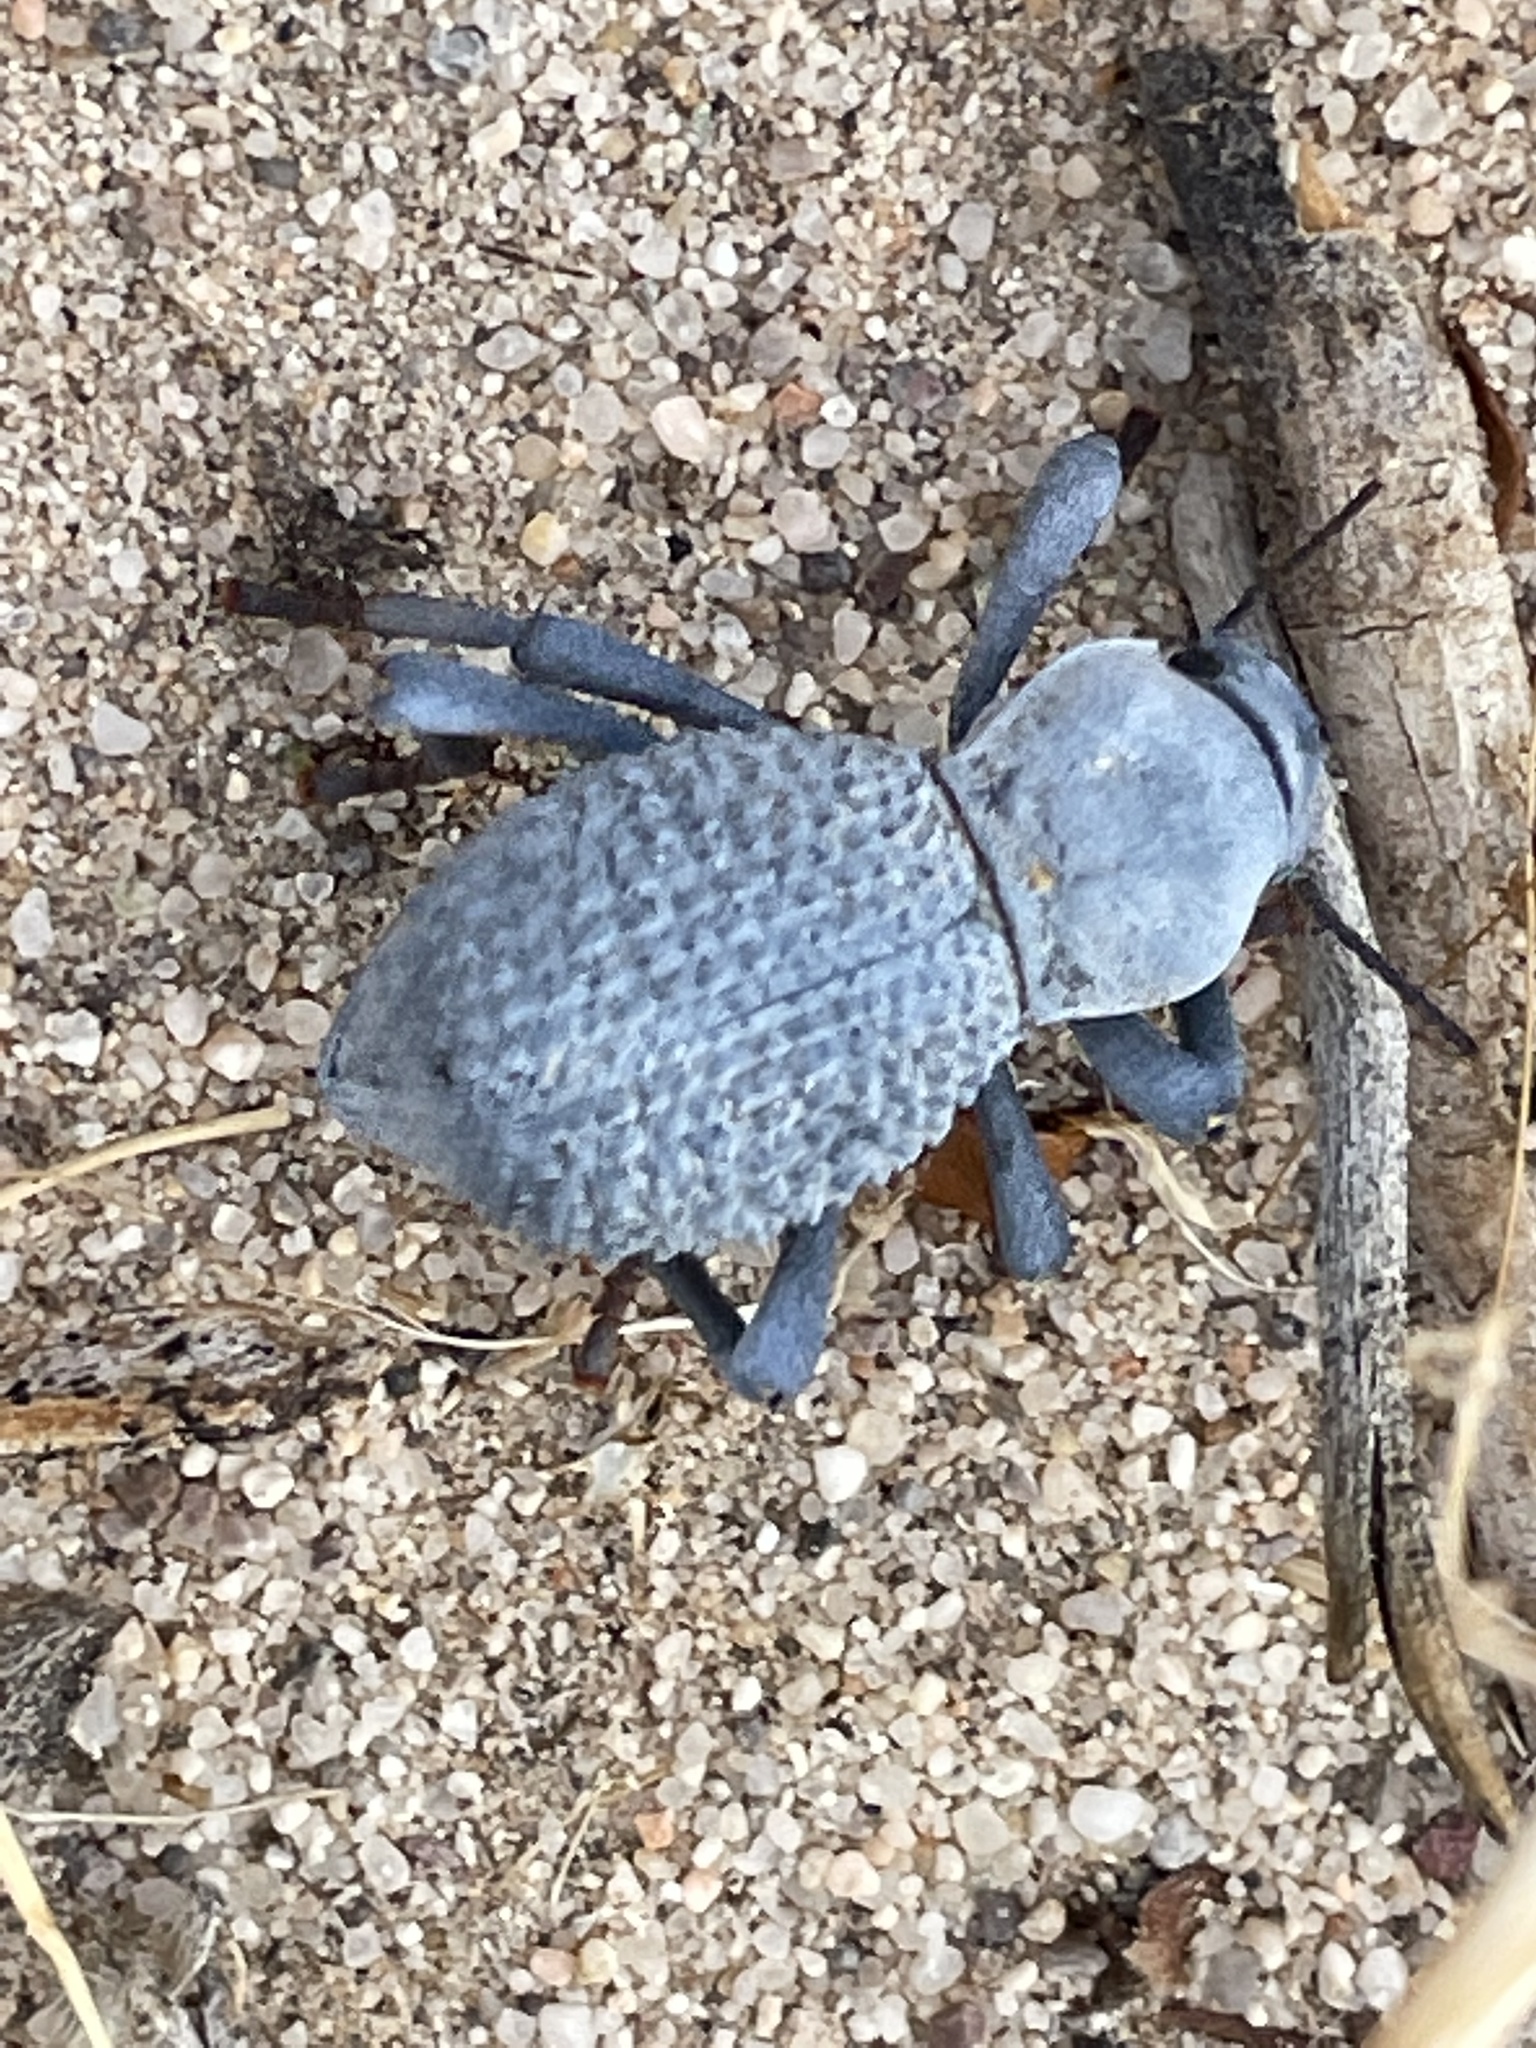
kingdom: Animalia
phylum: Arthropoda
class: Insecta
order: Coleoptera
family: Tenebrionidae
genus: Asbolus
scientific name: Asbolus verrucosus
